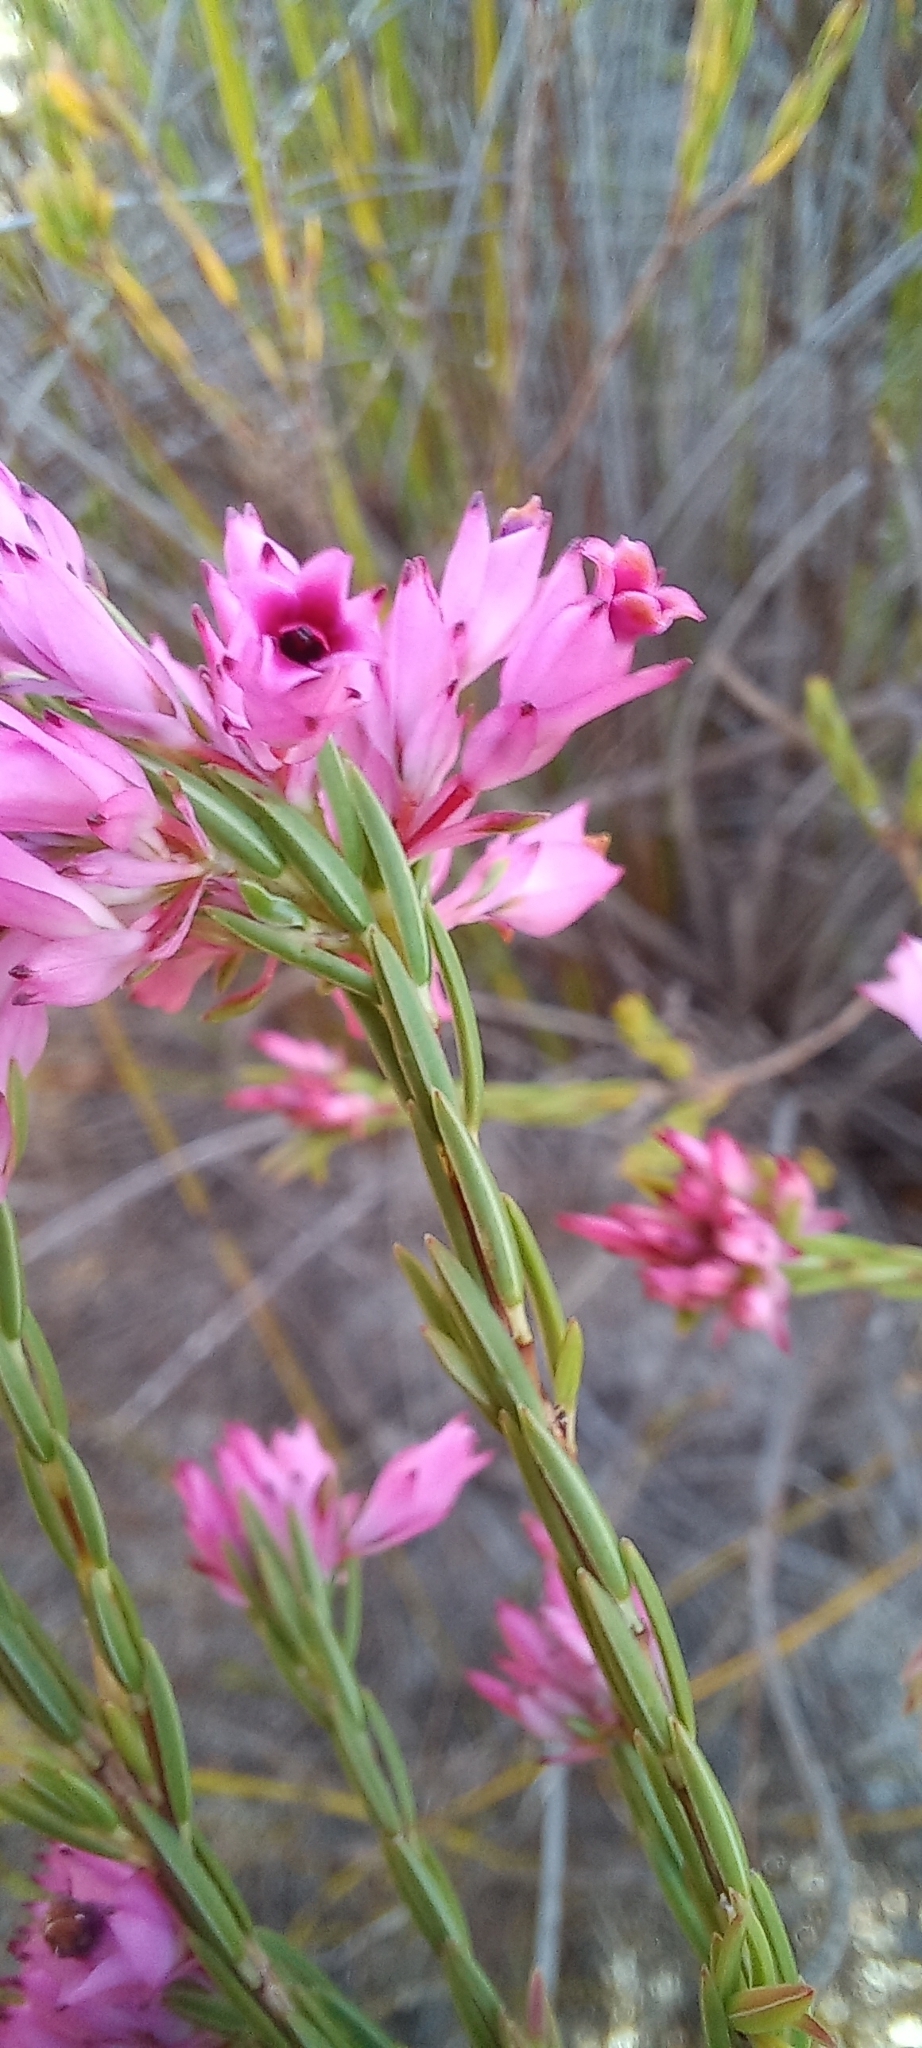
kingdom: Plantae
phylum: Tracheophyta
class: Magnoliopsida
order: Ericales
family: Ericaceae
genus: Erica
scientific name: Erica corifolia
